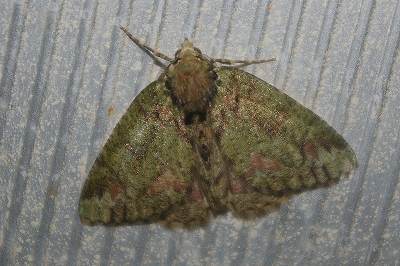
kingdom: Animalia
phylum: Arthropoda
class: Insecta
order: Lepidoptera
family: Geometridae
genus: Dindica
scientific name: Dindica virescens
